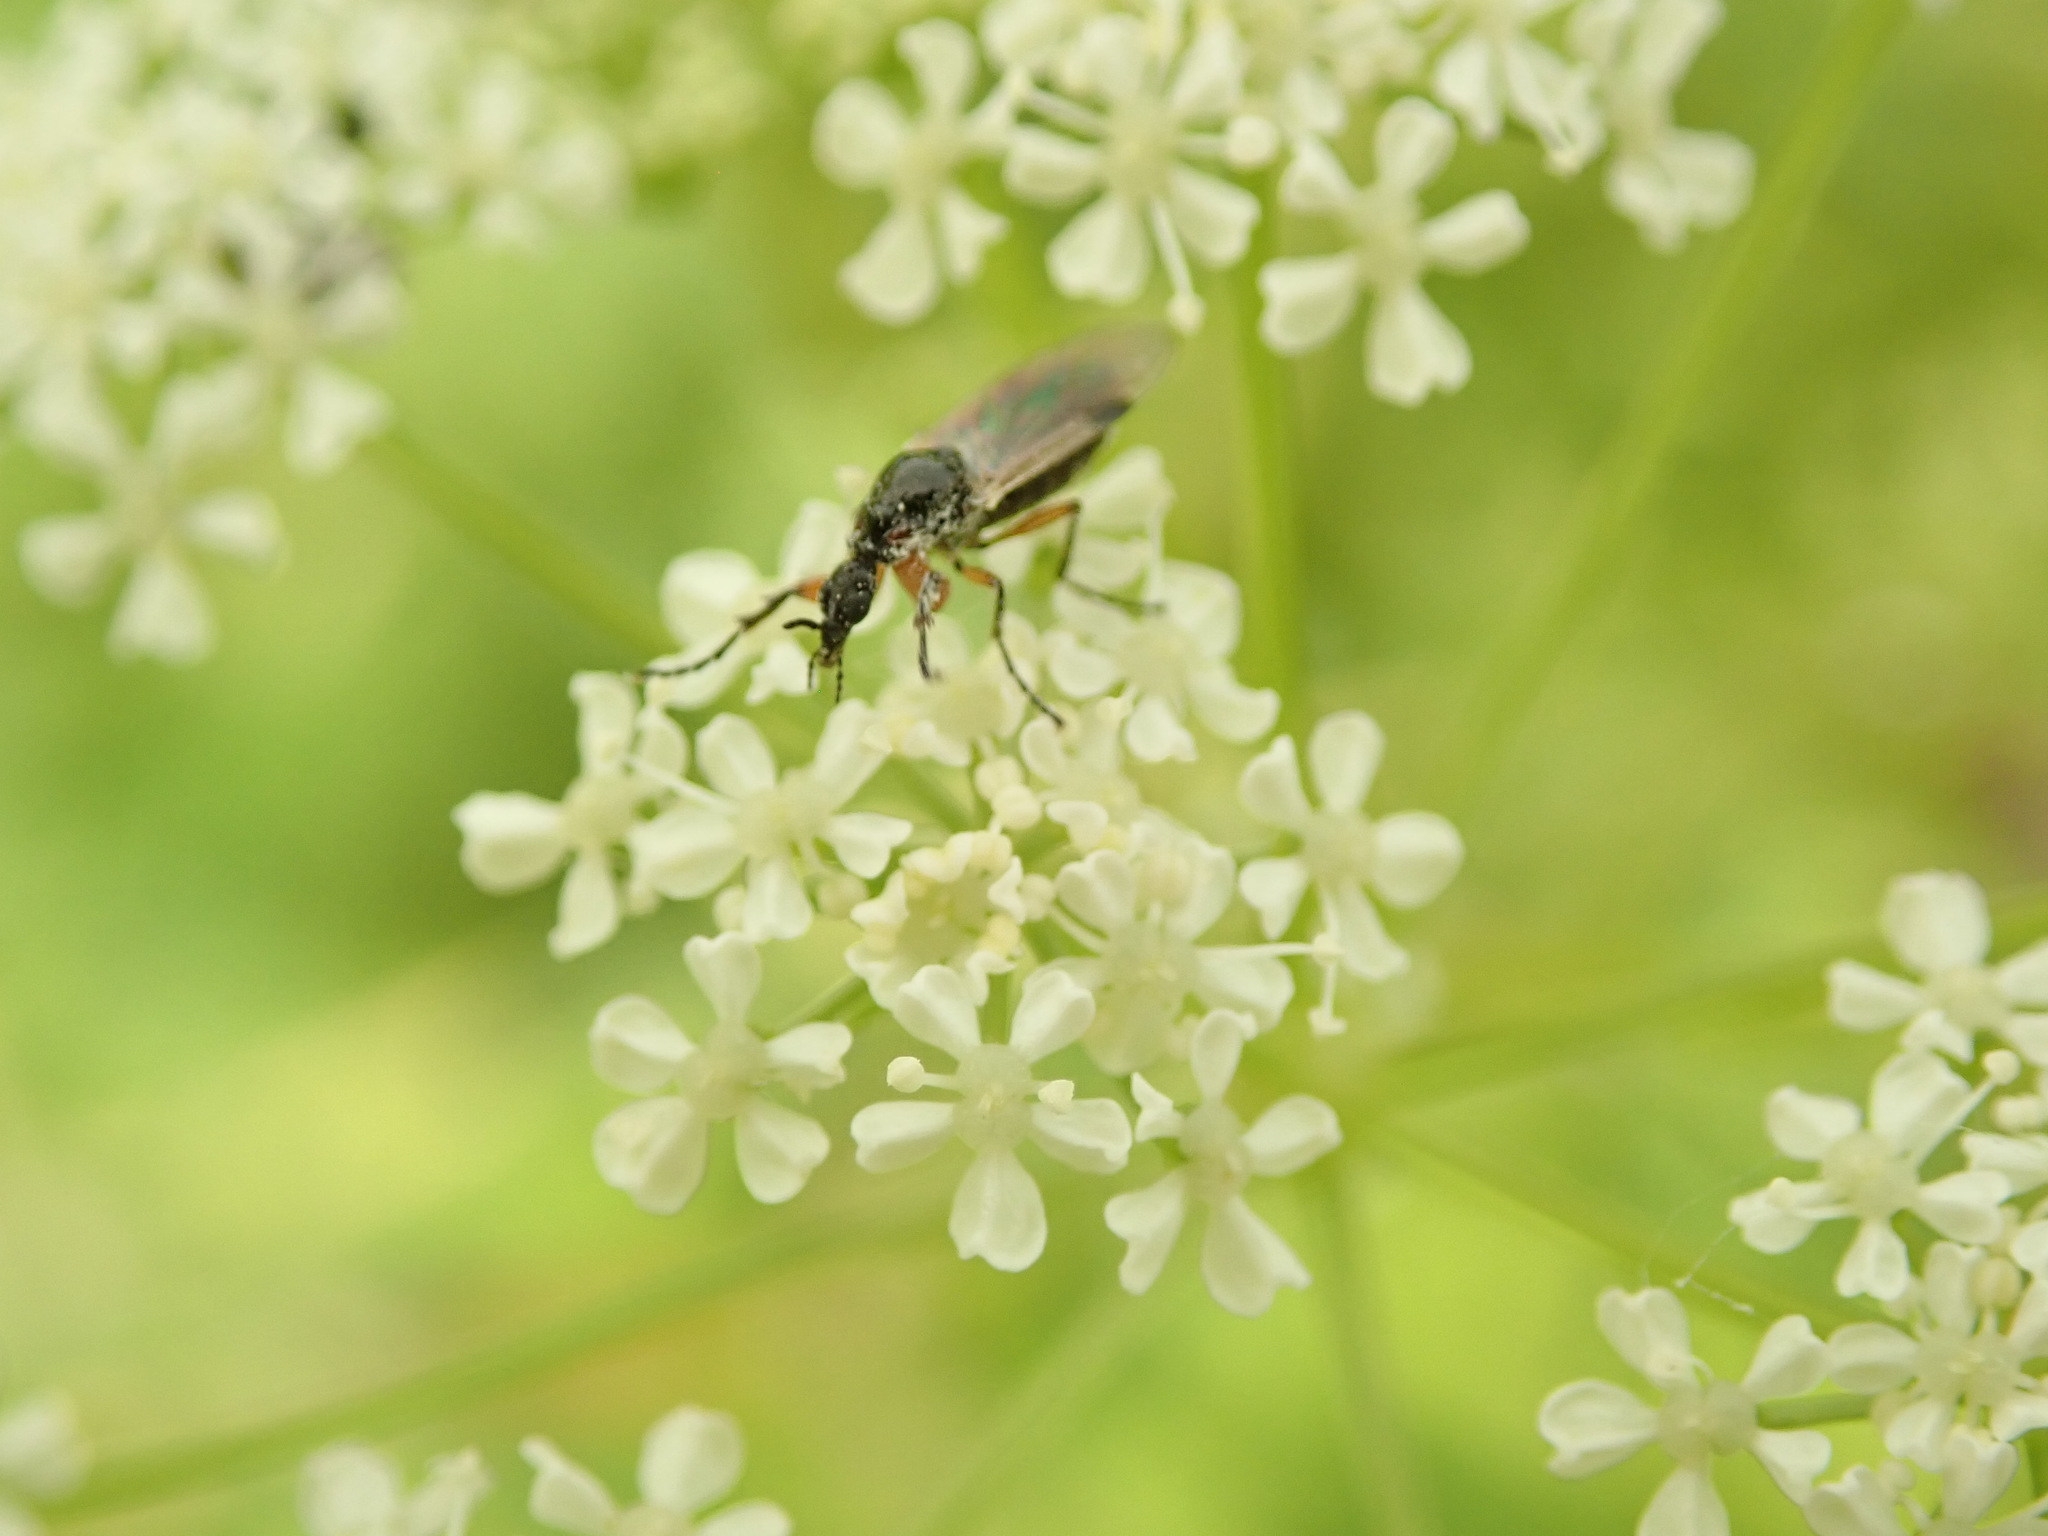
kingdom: Animalia
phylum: Arthropoda
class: Insecta
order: Diptera
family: Bibionidae
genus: Dilophus
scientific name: Dilophus
